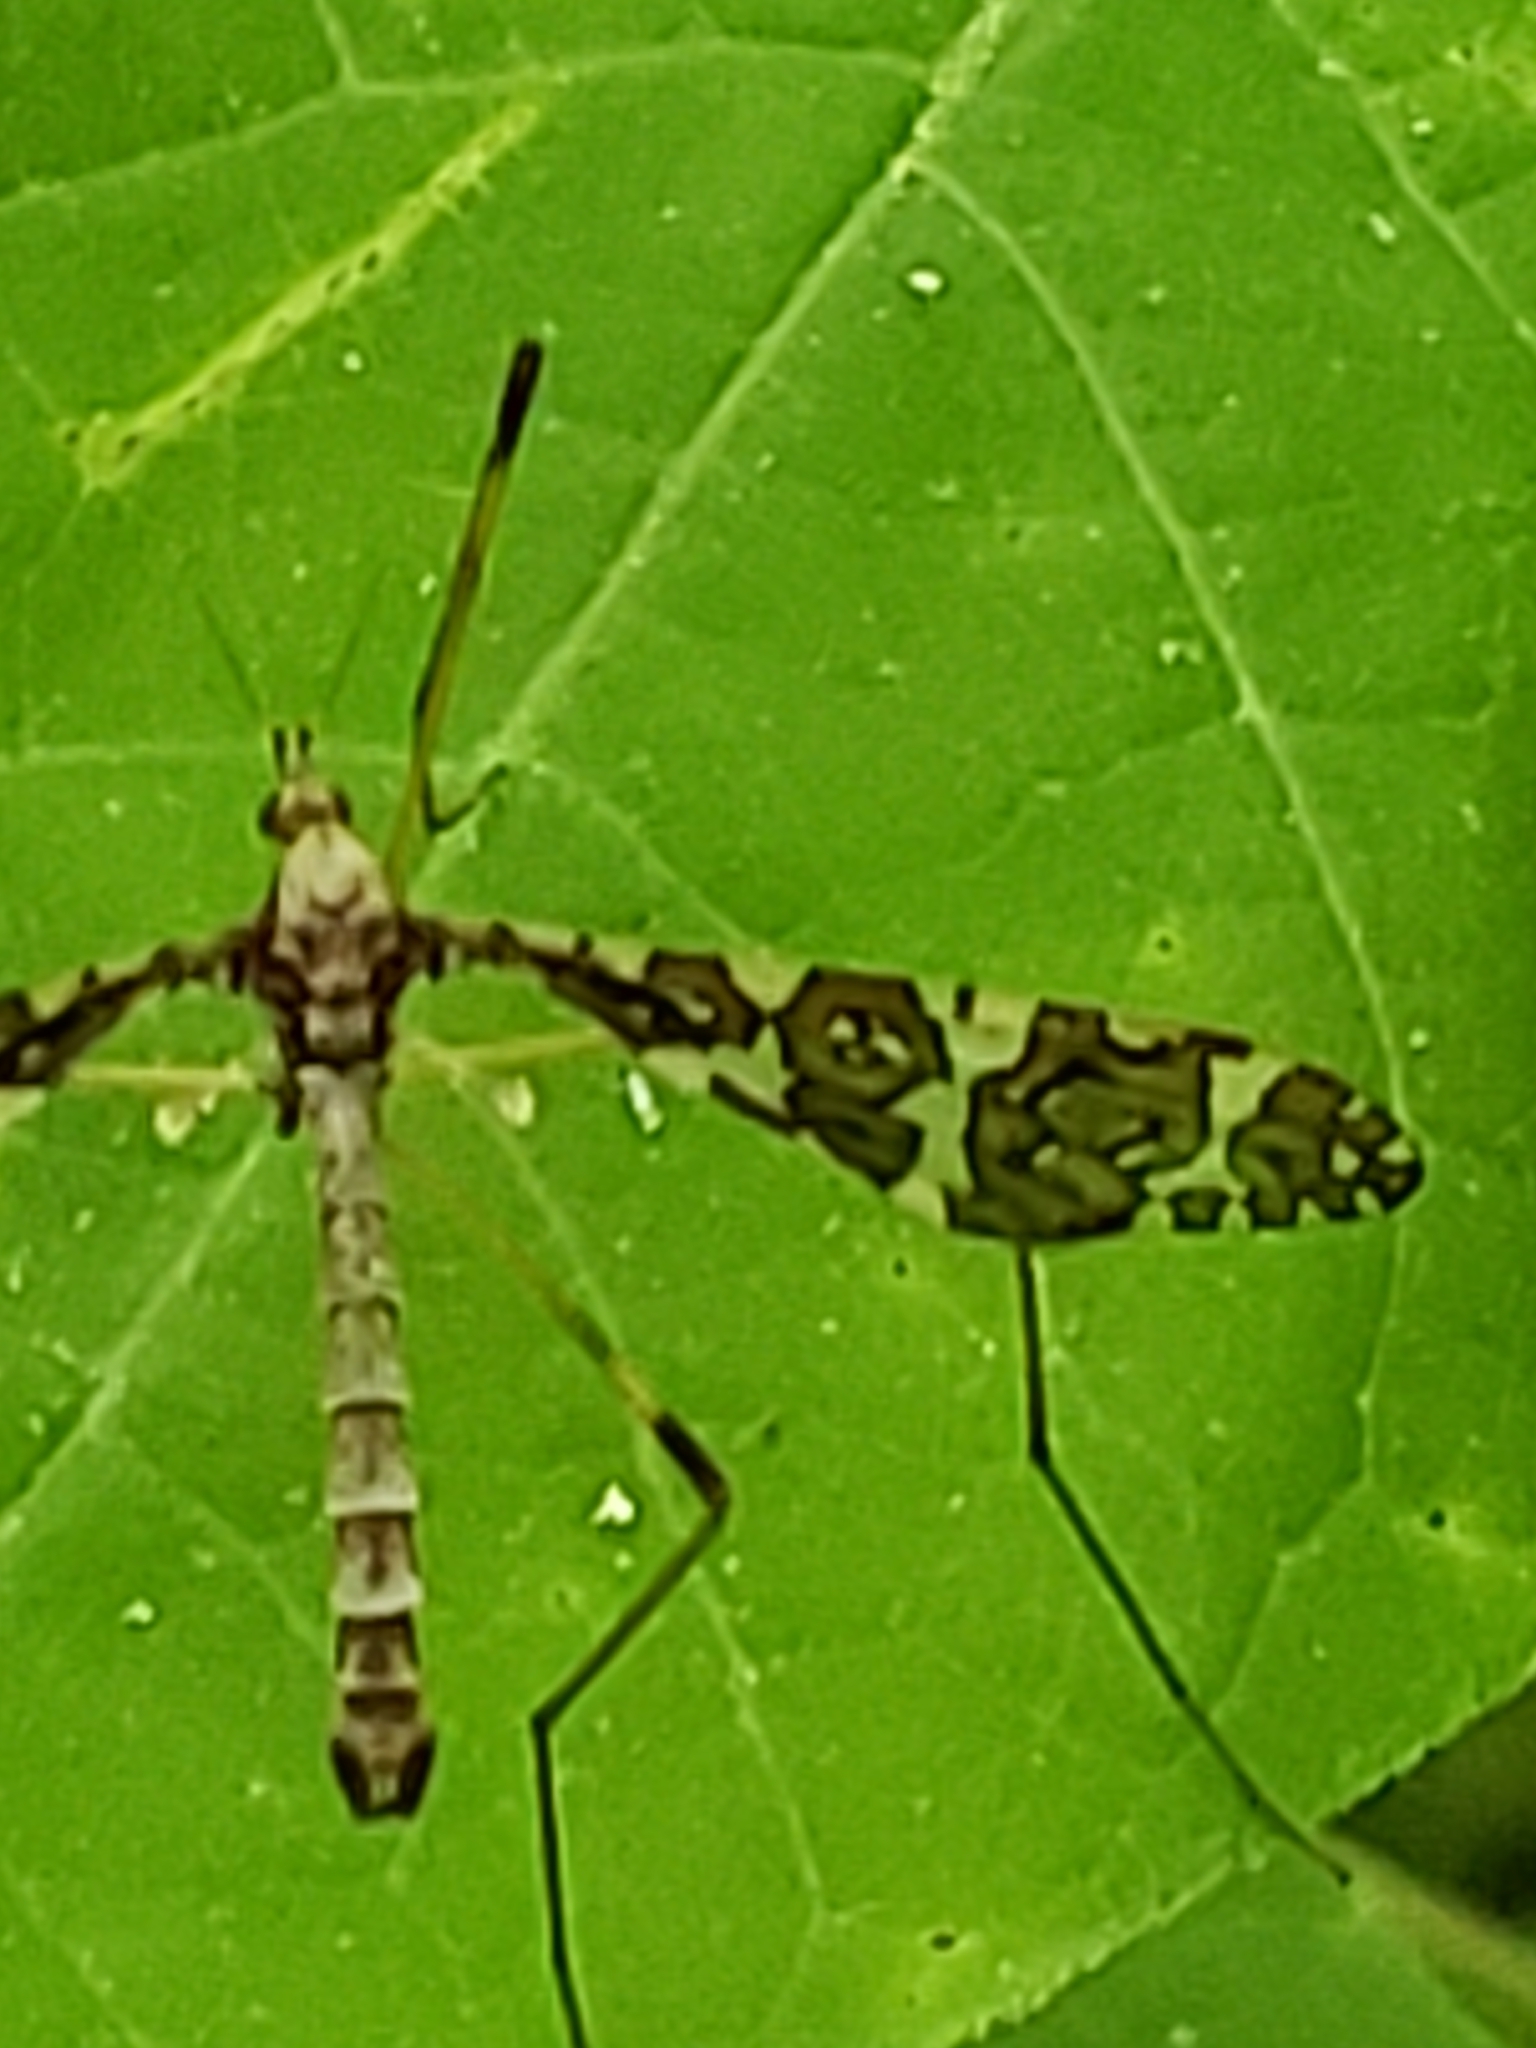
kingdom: Animalia
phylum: Arthropoda
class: Insecta
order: Diptera
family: Limoniidae
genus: Epiphragma
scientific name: Epiphragma fasciapenne
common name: Band-winged crane fly
